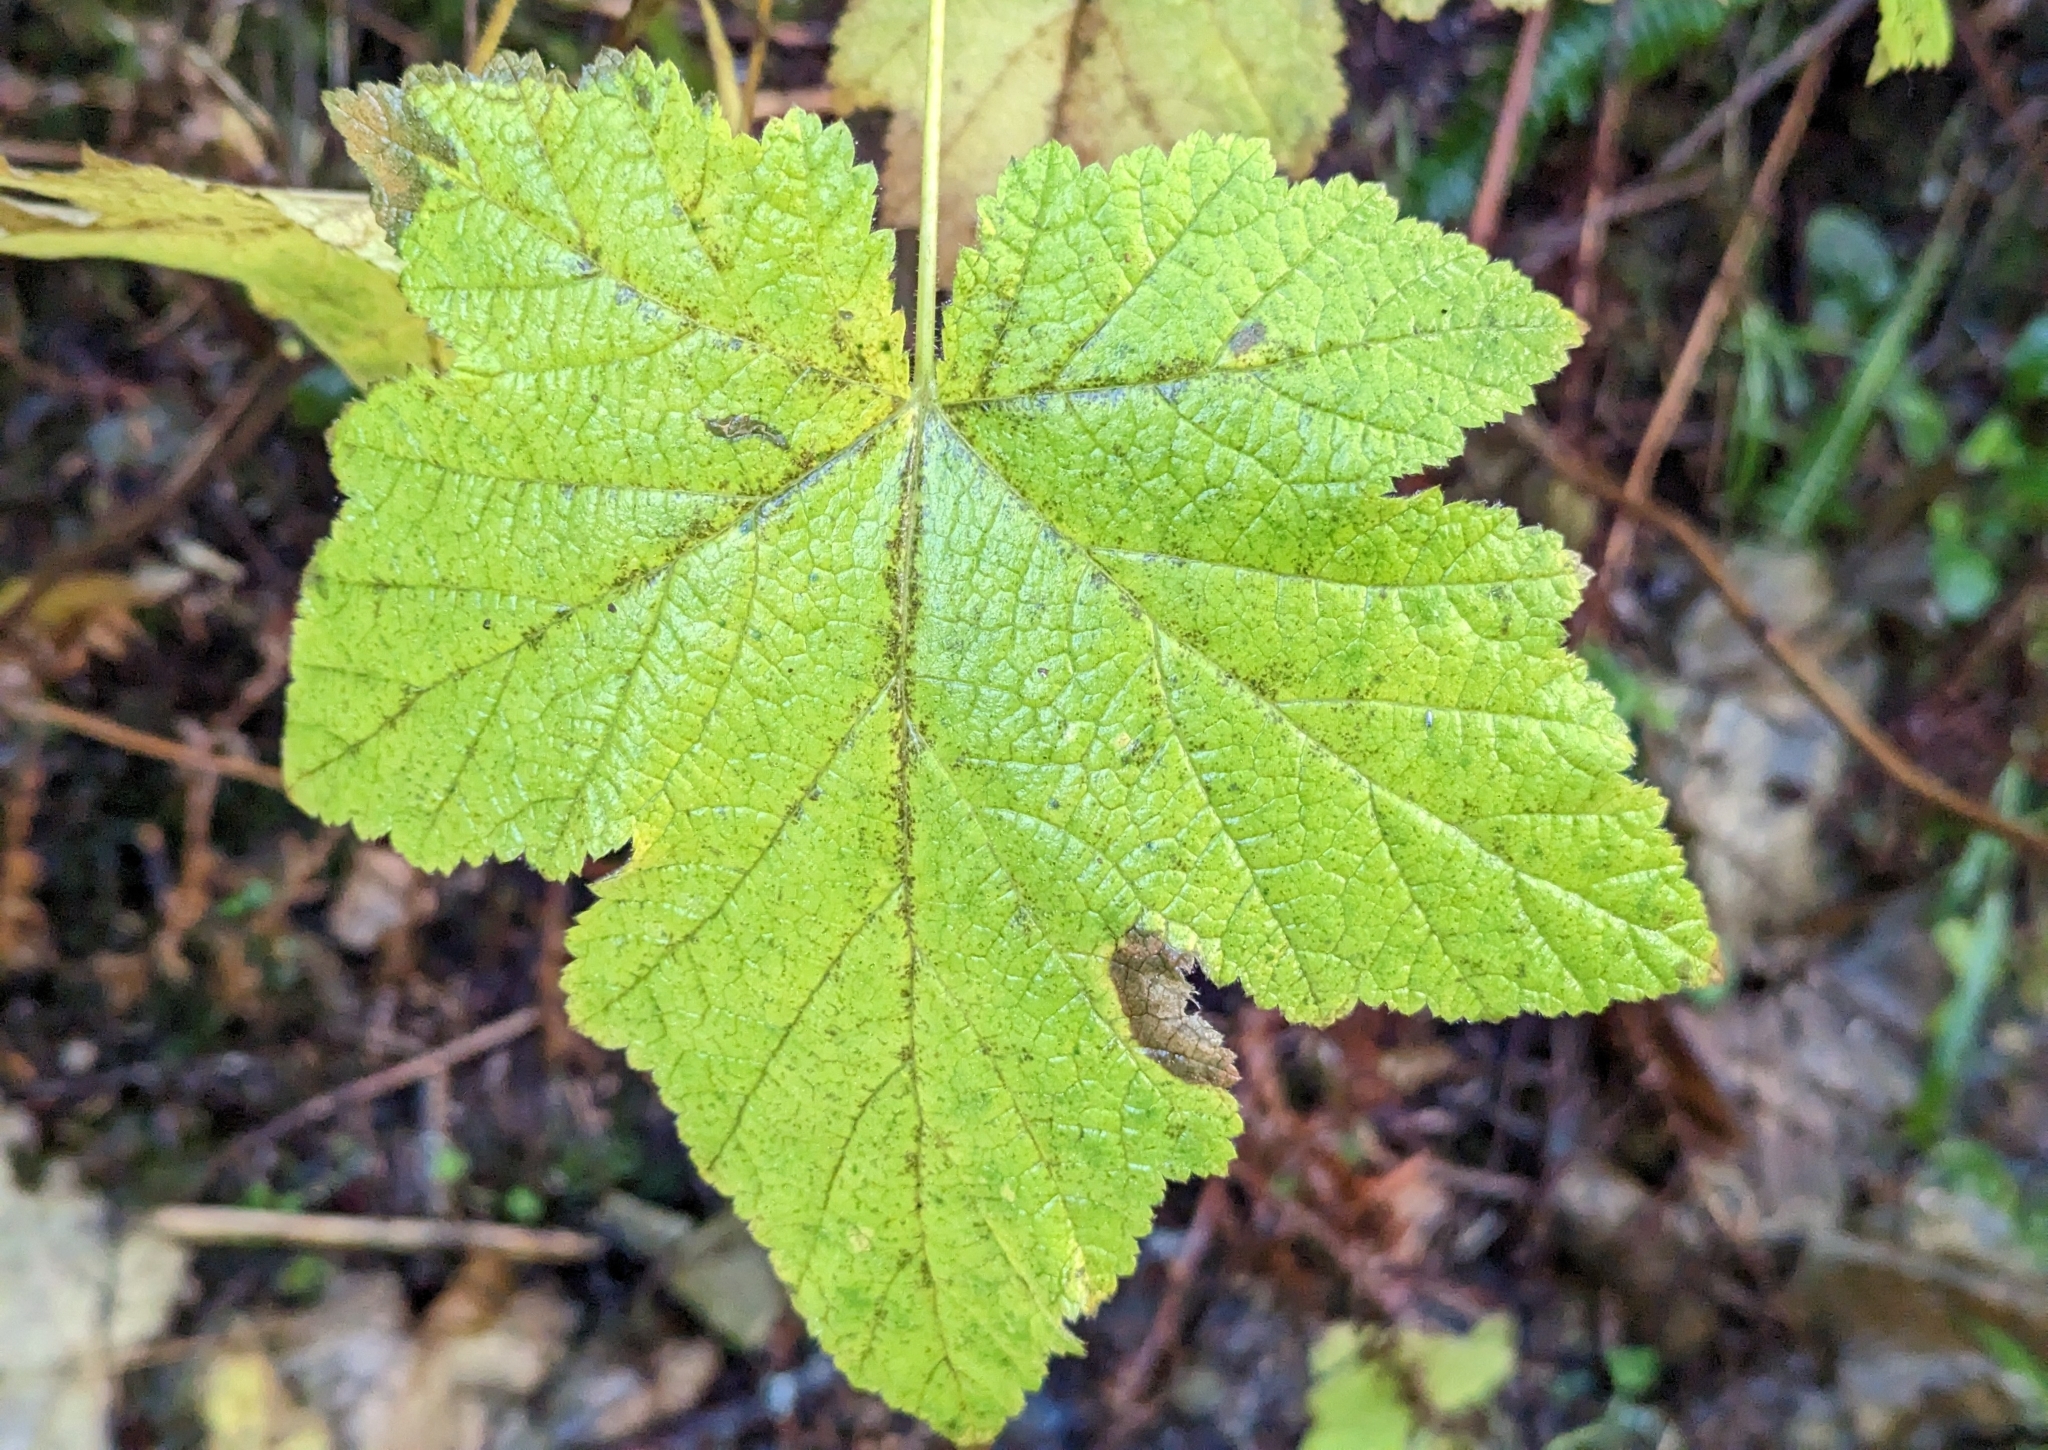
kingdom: Plantae
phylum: Tracheophyta
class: Magnoliopsida
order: Rosales
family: Rosaceae
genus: Rubus
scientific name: Rubus parviflorus
